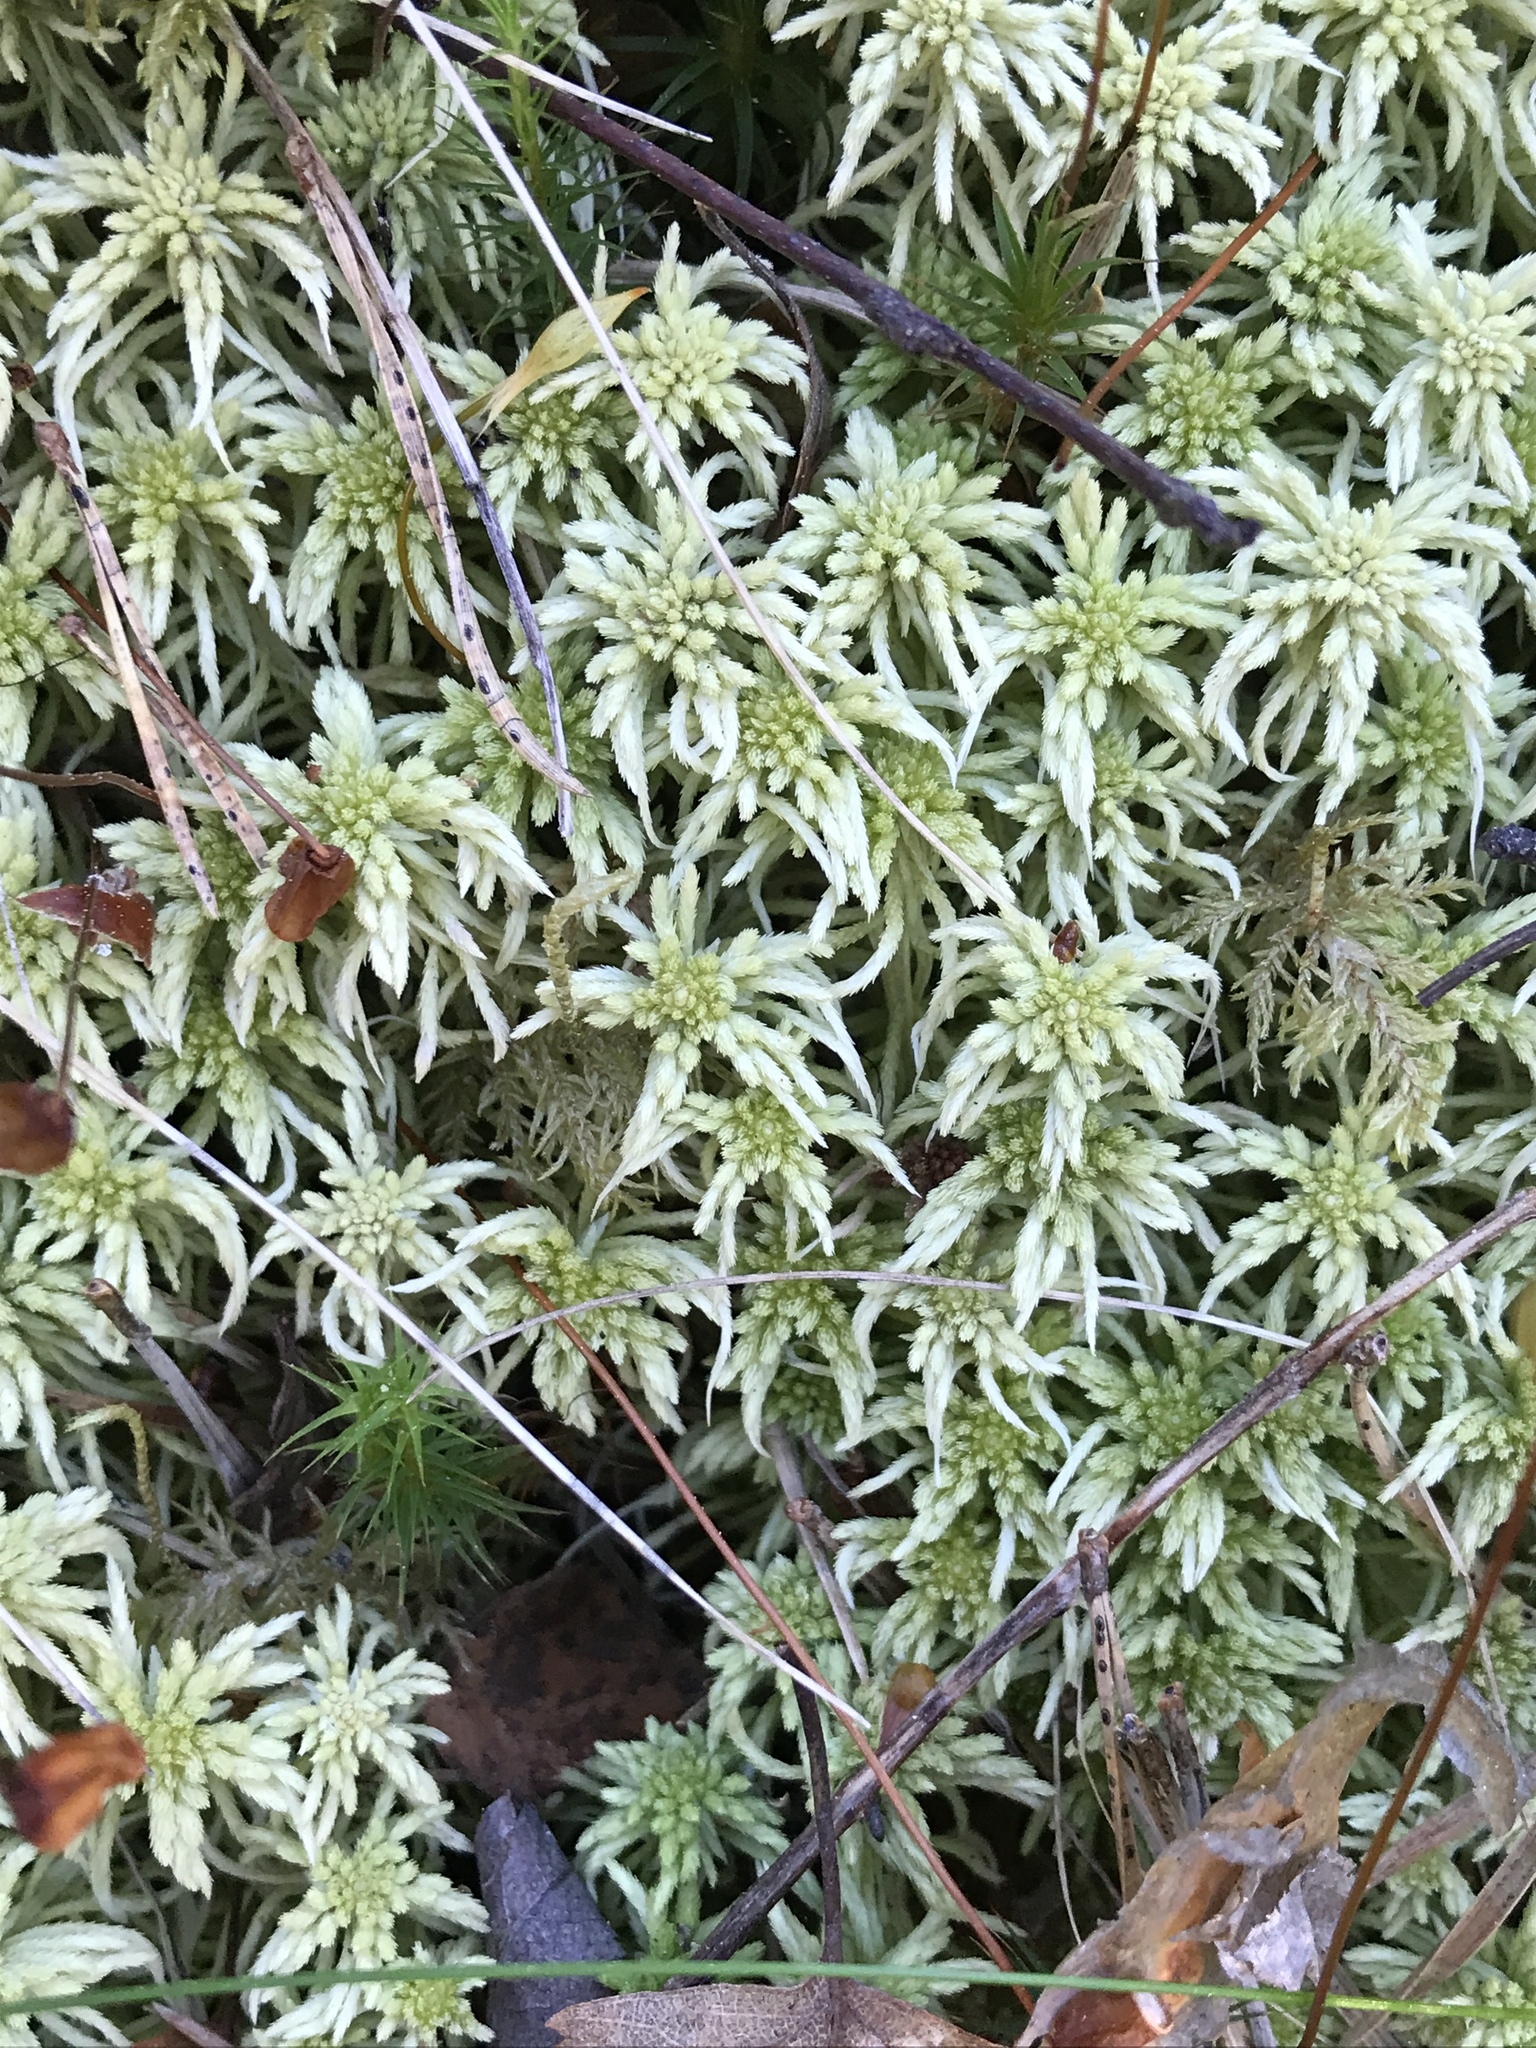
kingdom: Plantae
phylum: Bryophyta
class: Sphagnopsida
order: Sphagnales
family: Sphagnaceae
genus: Sphagnum
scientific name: Sphagnum girgensohnii
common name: Girgensohn's peat moss
